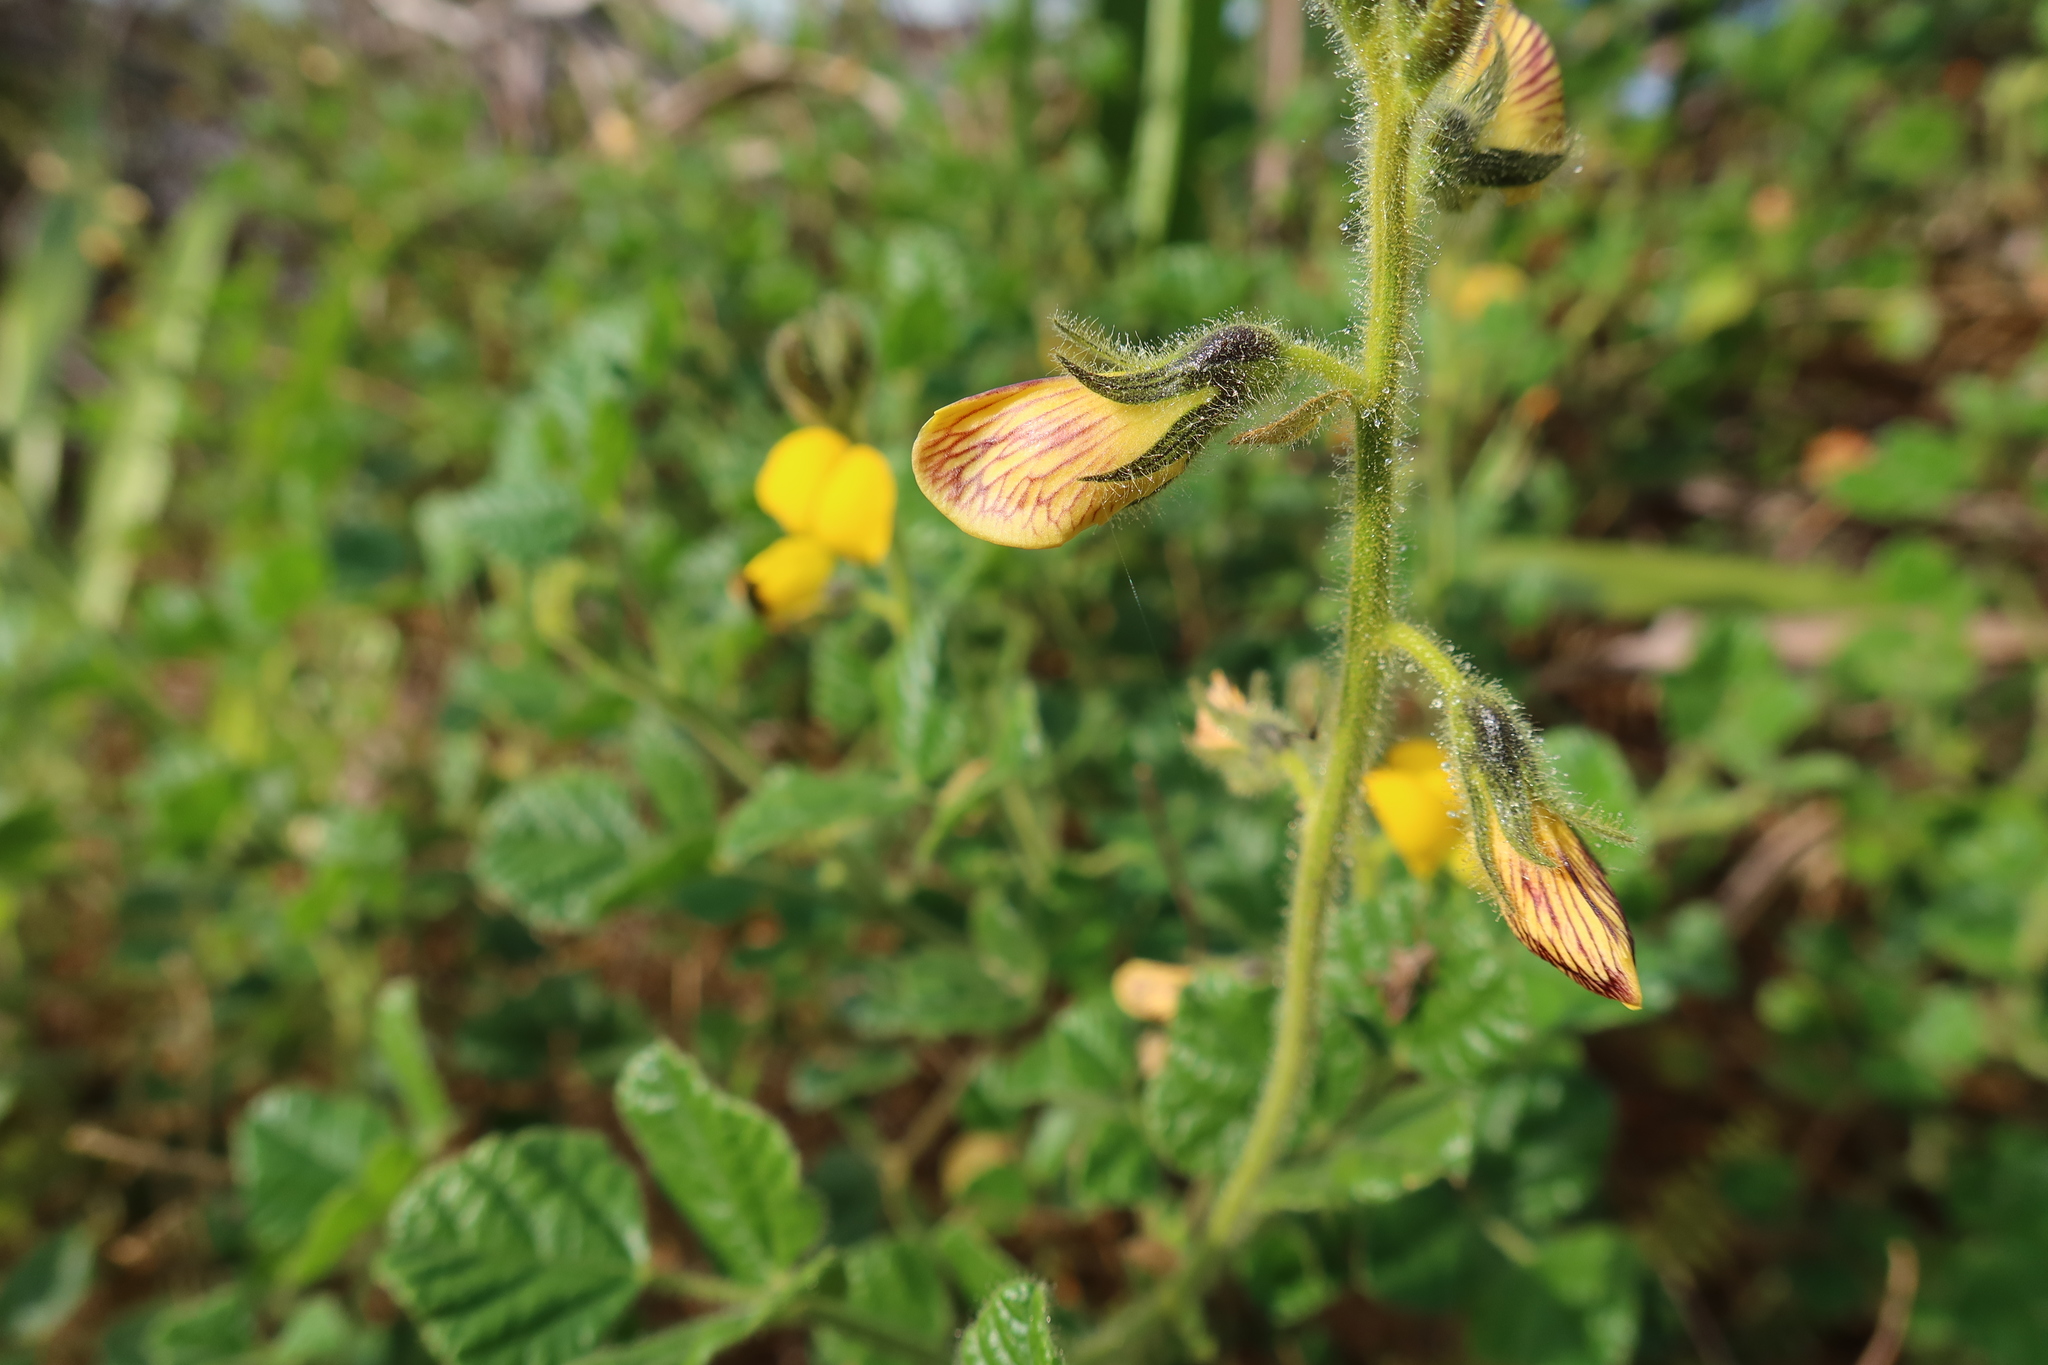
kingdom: Plantae
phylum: Tracheophyta
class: Magnoliopsida
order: Fabales
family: Fabaceae
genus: Bolusafra
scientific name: Bolusafra bituminosa
